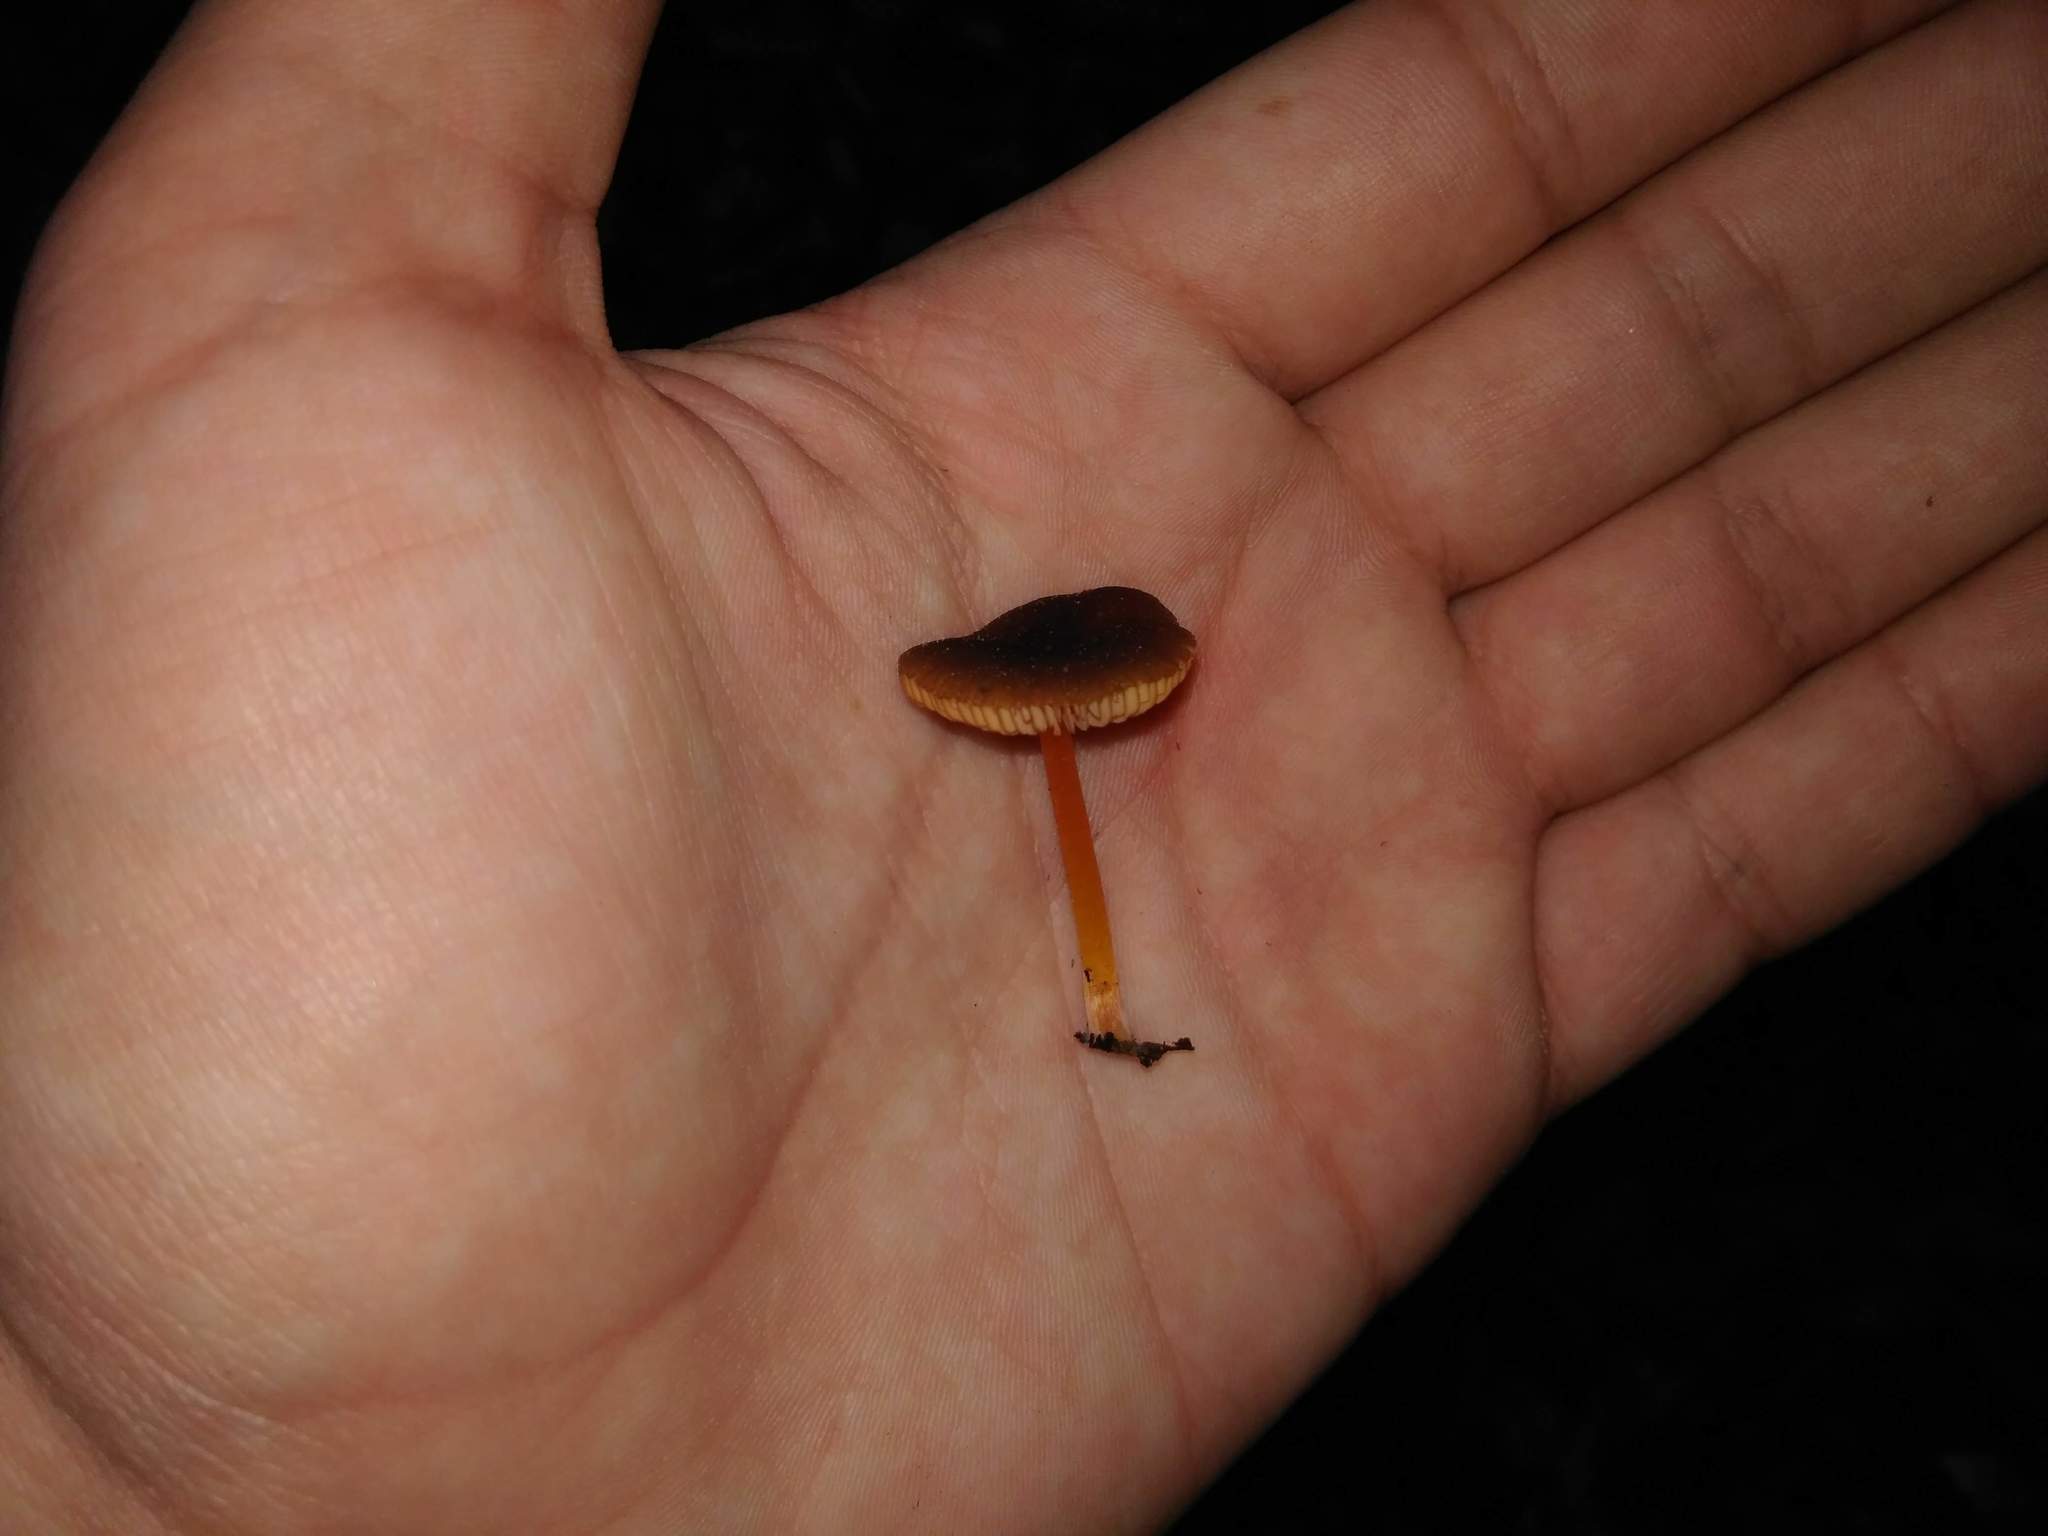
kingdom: Fungi
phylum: Basidiomycota
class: Agaricomycetes
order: Agaricales
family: Pluteaceae
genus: Pluteus
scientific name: Pluteus flammipes
